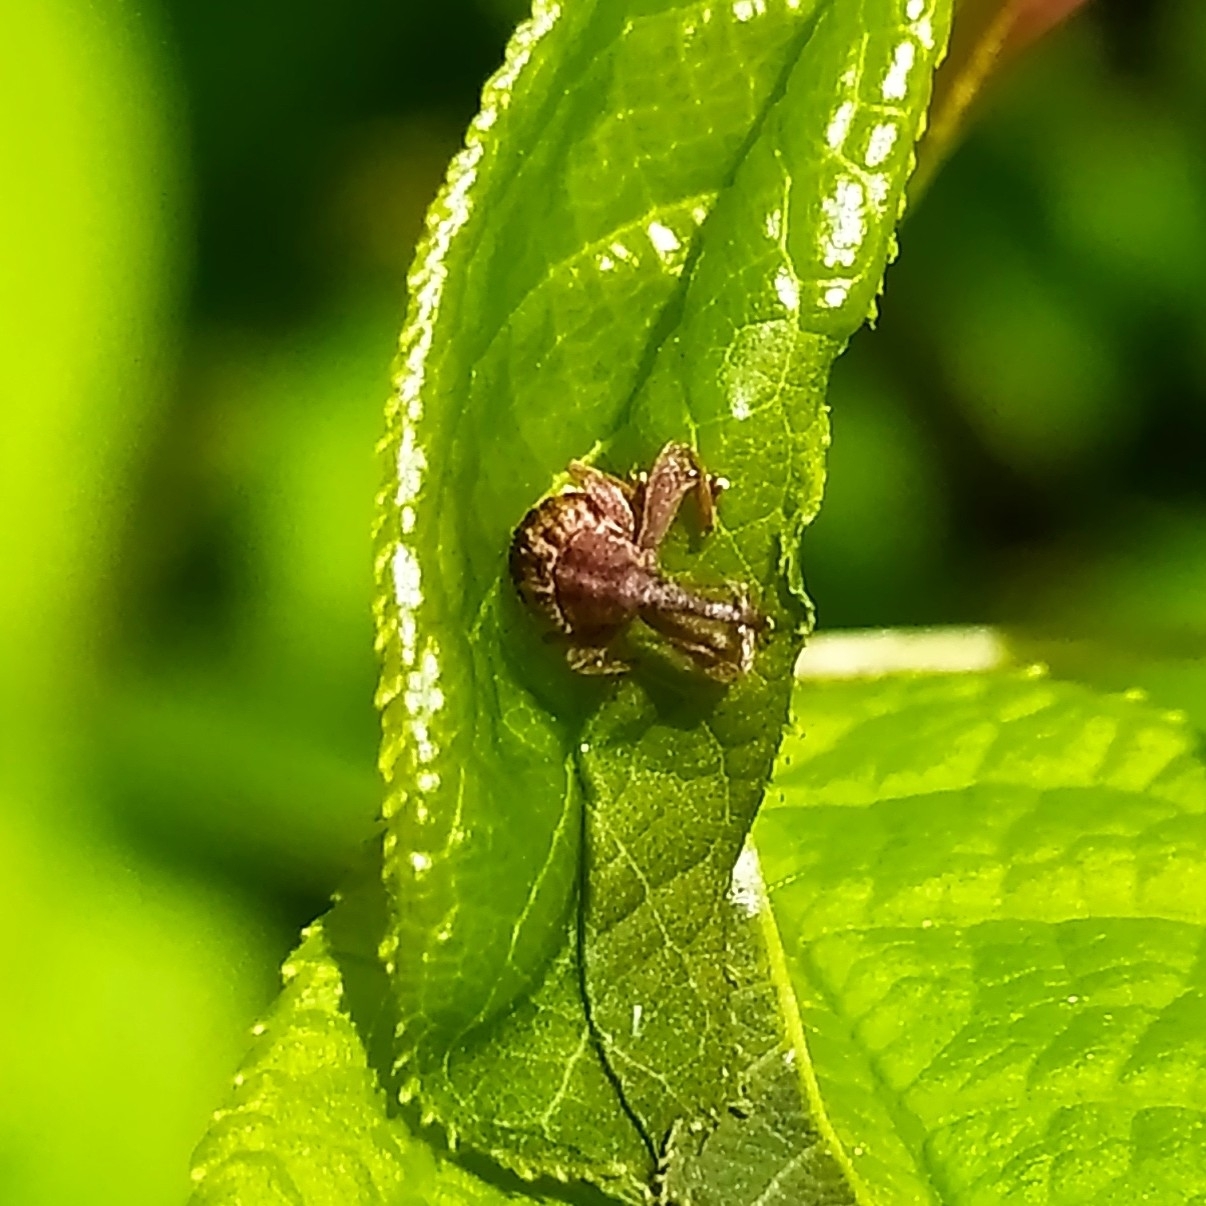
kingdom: Animalia
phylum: Arthropoda
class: Insecta
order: Coleoptera
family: Curculionidae
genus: Anthonomus
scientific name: Anthonomus rectirostris
